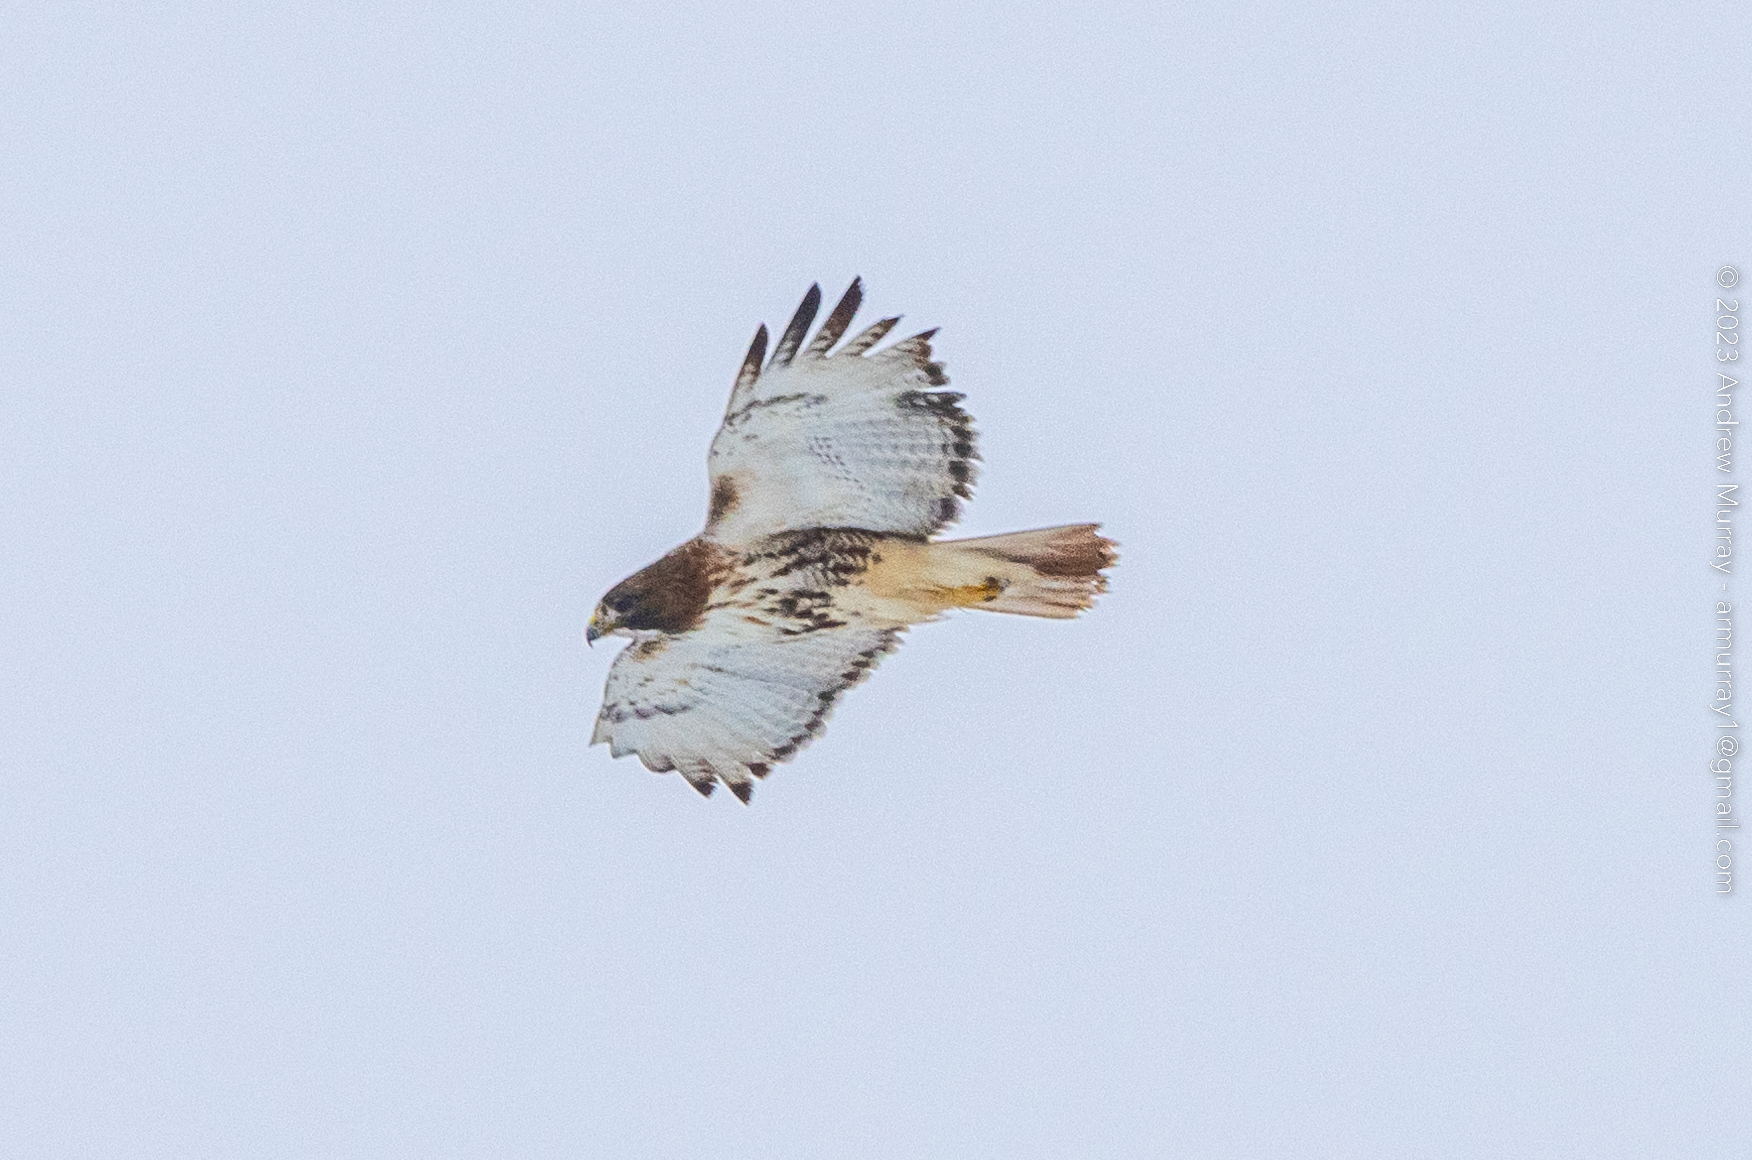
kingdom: Animalia
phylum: Chordata
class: Aves
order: Accipitriformes
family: Accipitridae
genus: Buteo
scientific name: Buteo jamaicensis
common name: Red-tailed hawk
